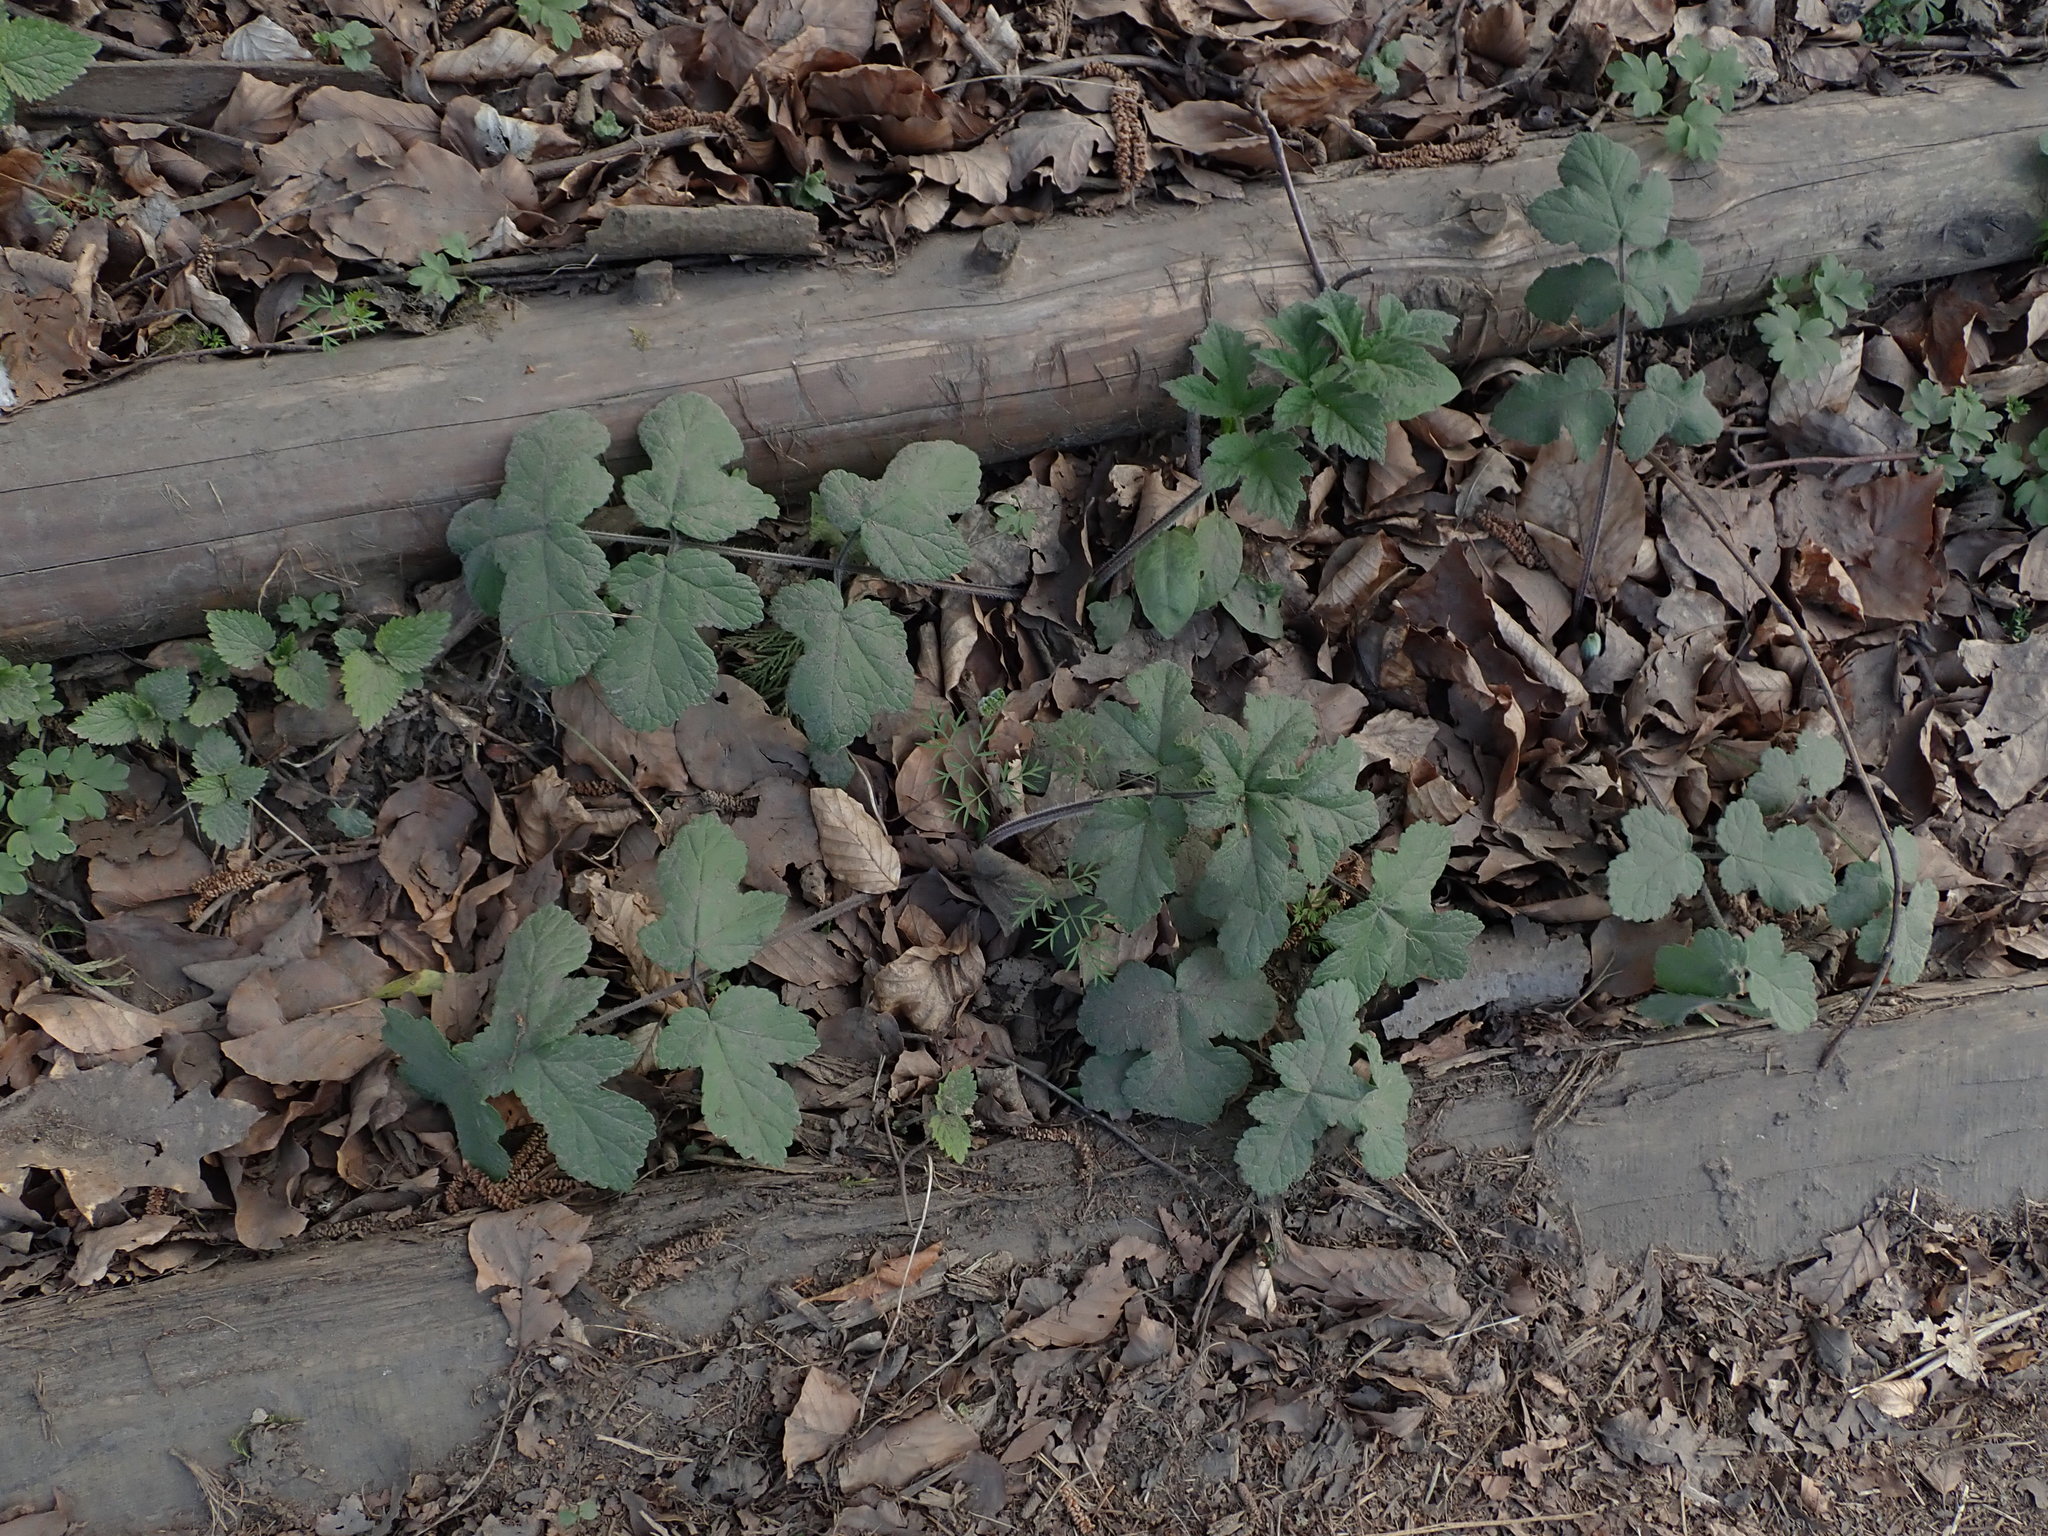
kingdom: Plantae
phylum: Tracheophyta
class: Magnoliopsida
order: Apiales
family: Apiaceae
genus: Heracleum
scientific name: Heracleum sphondylium
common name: Hogweed
